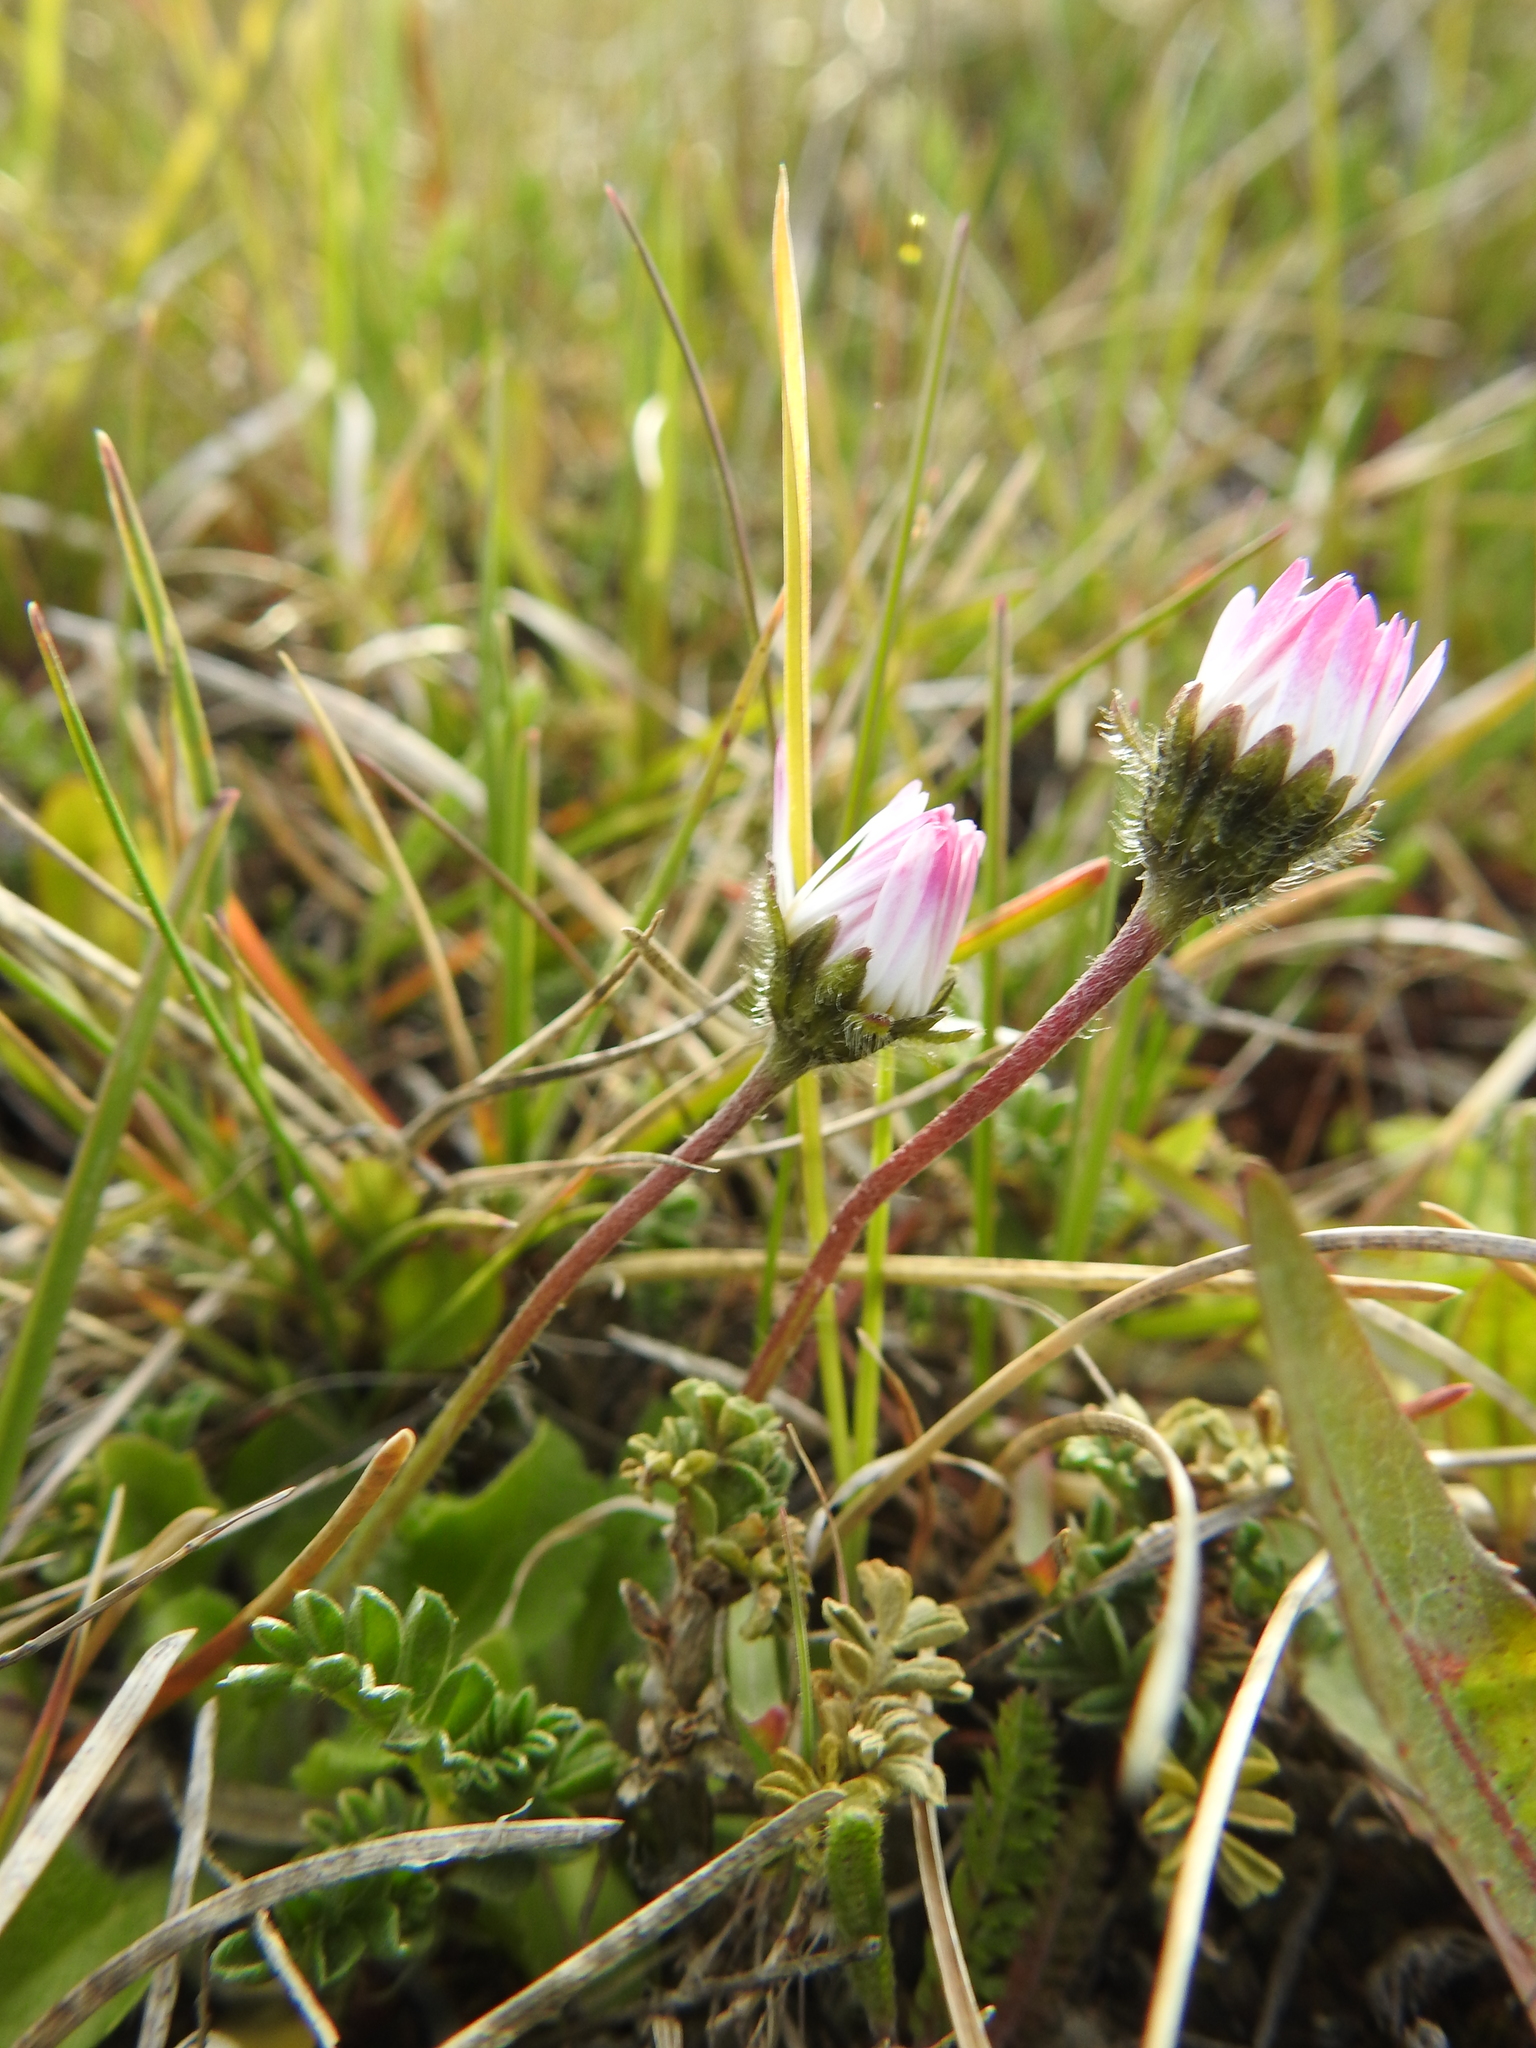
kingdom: Plantae
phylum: Tracheophyta
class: Magnoliopsida
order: Asterales
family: Asteraceae
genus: Bellis
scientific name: Bellis perennis
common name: Lawndaisy
